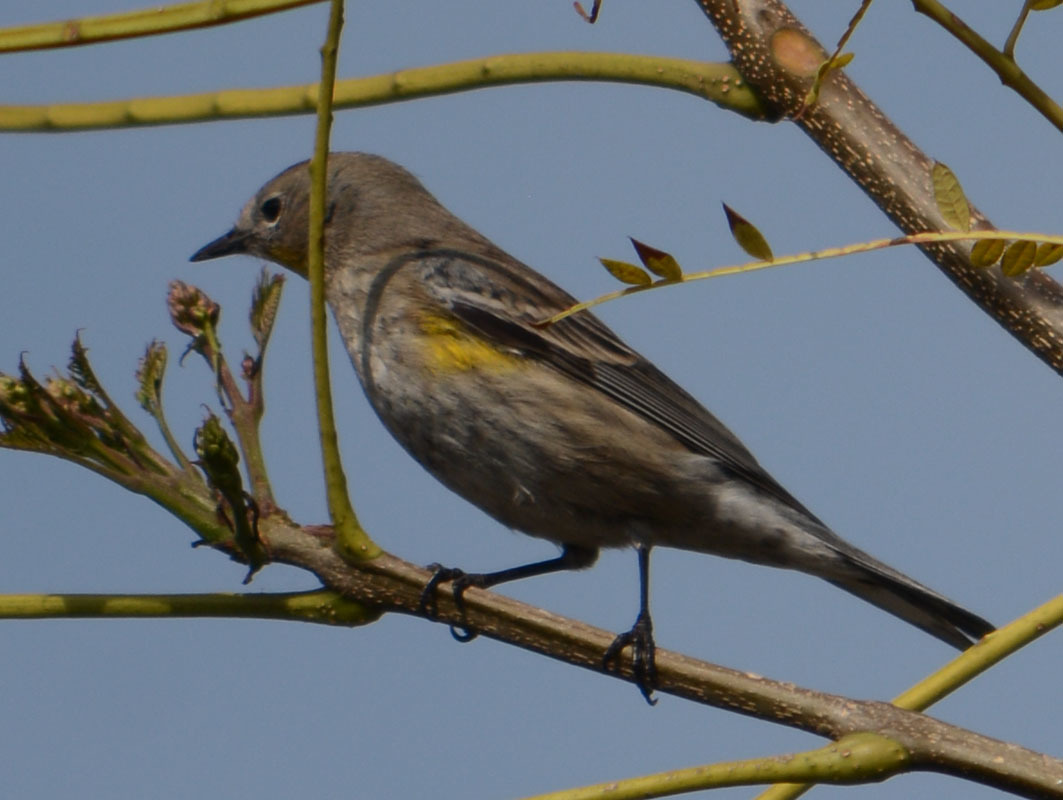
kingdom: Animalia
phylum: Chordata
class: Aves
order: Passeriformes
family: Parulidae
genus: Setophaga
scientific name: Setophaga coronata
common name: Myrtle warbler
